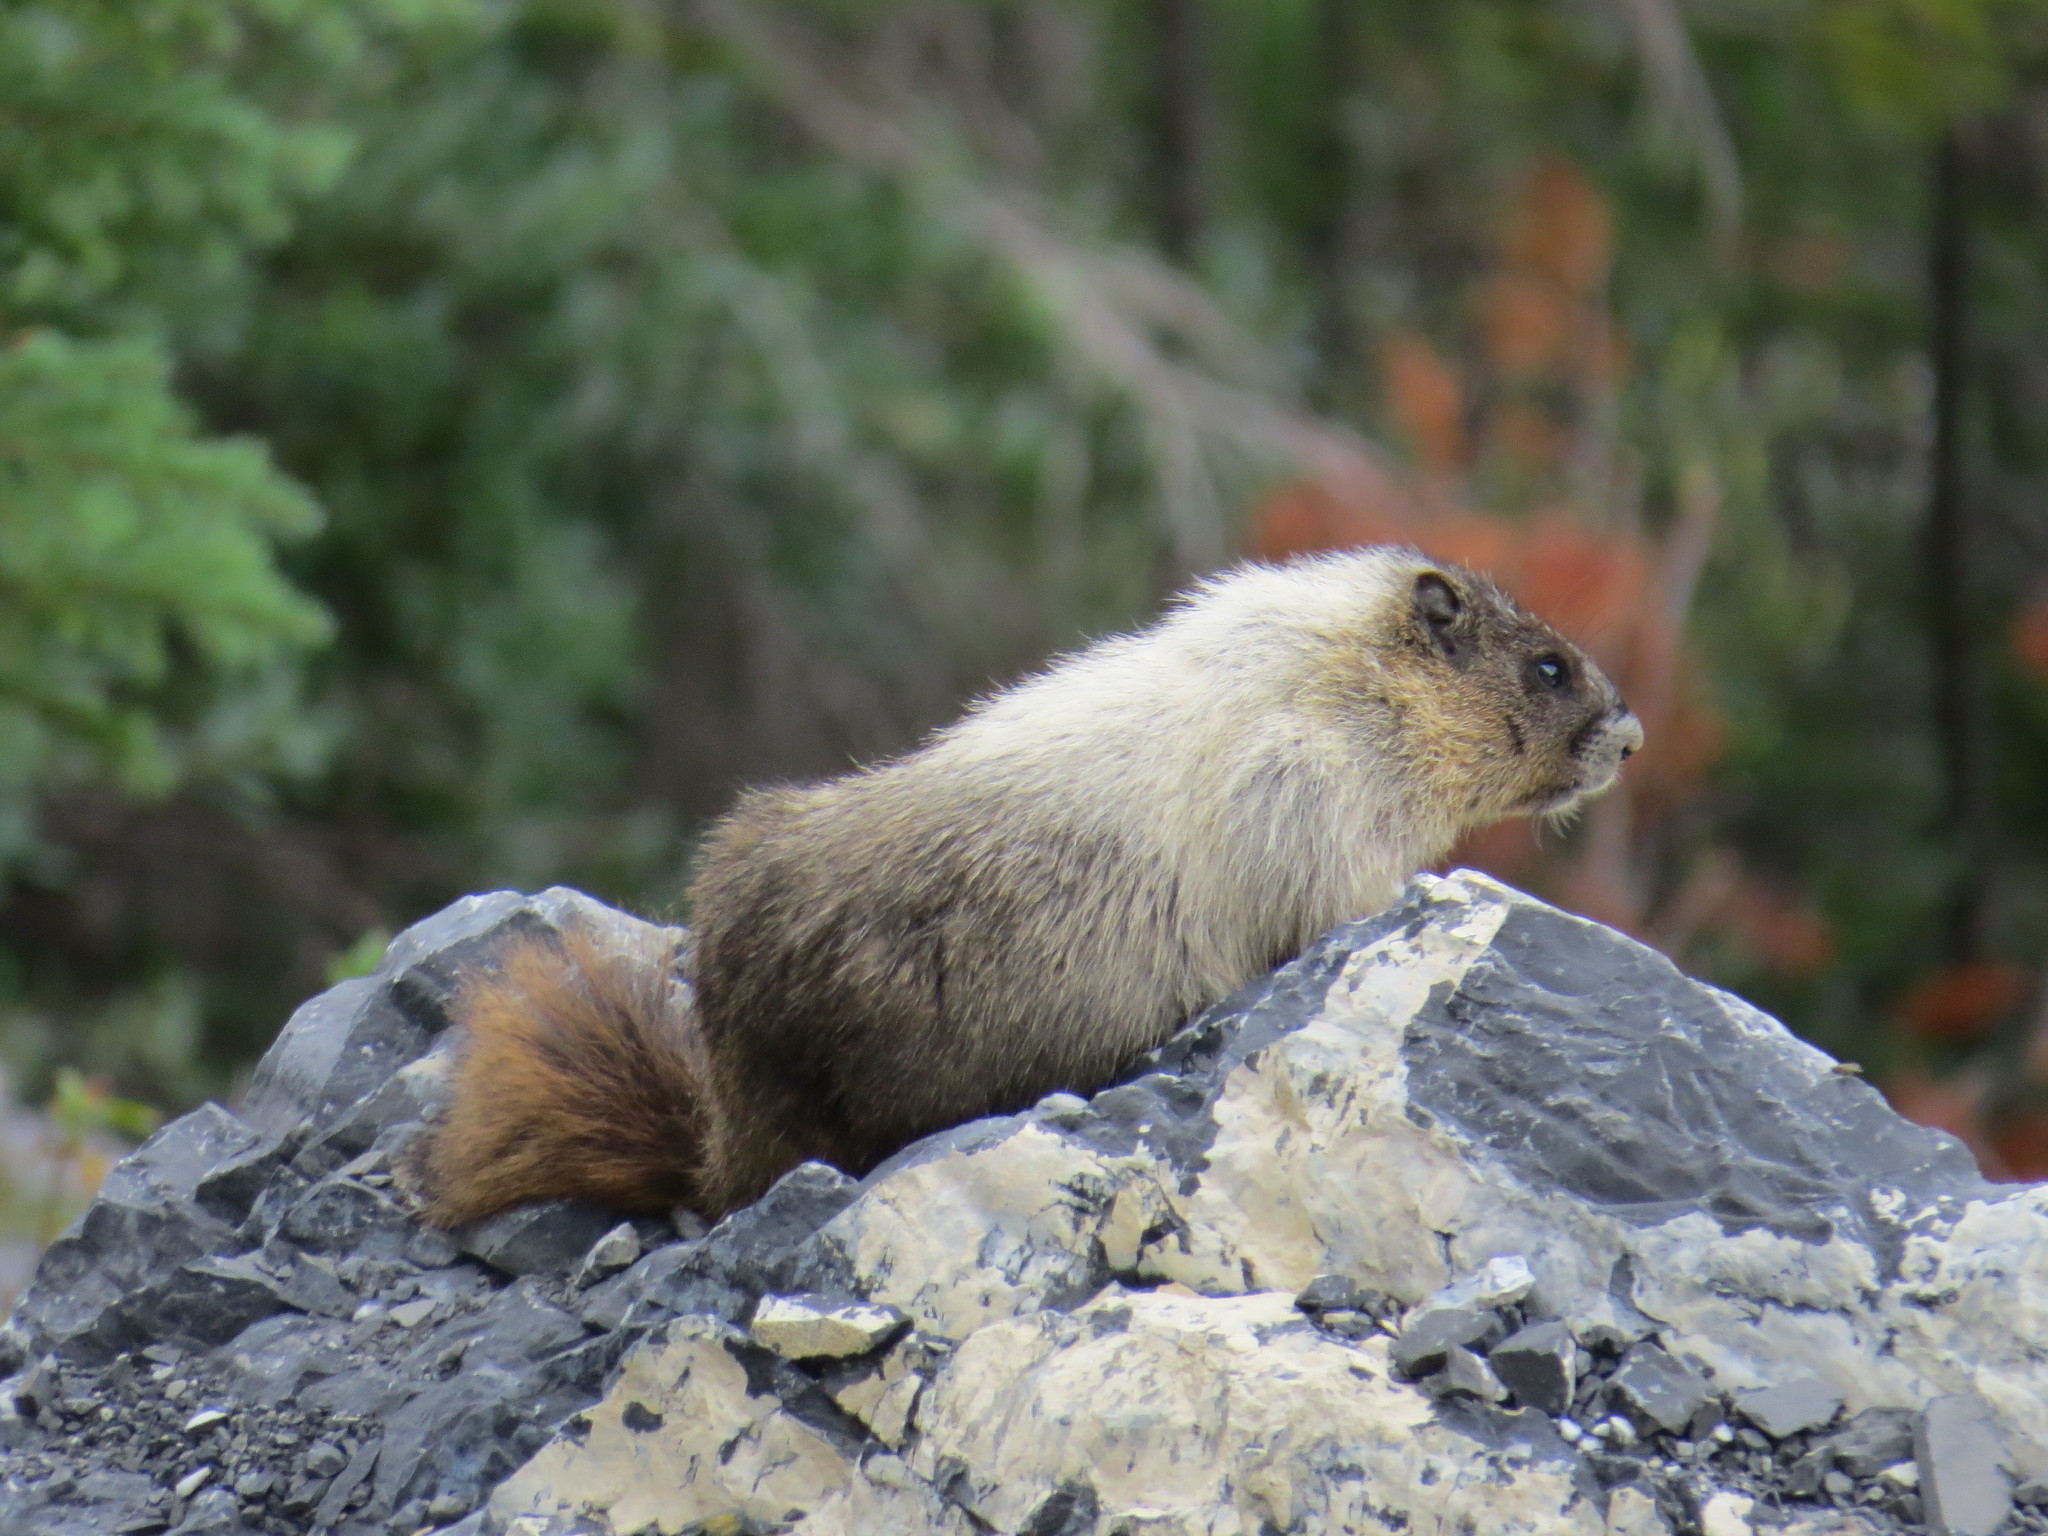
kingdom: Animalia
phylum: Chordata
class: Mammalia
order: Rodentia
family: Sciuridae
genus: Marmota
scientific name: Marmota caligata
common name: Hoary marmot
